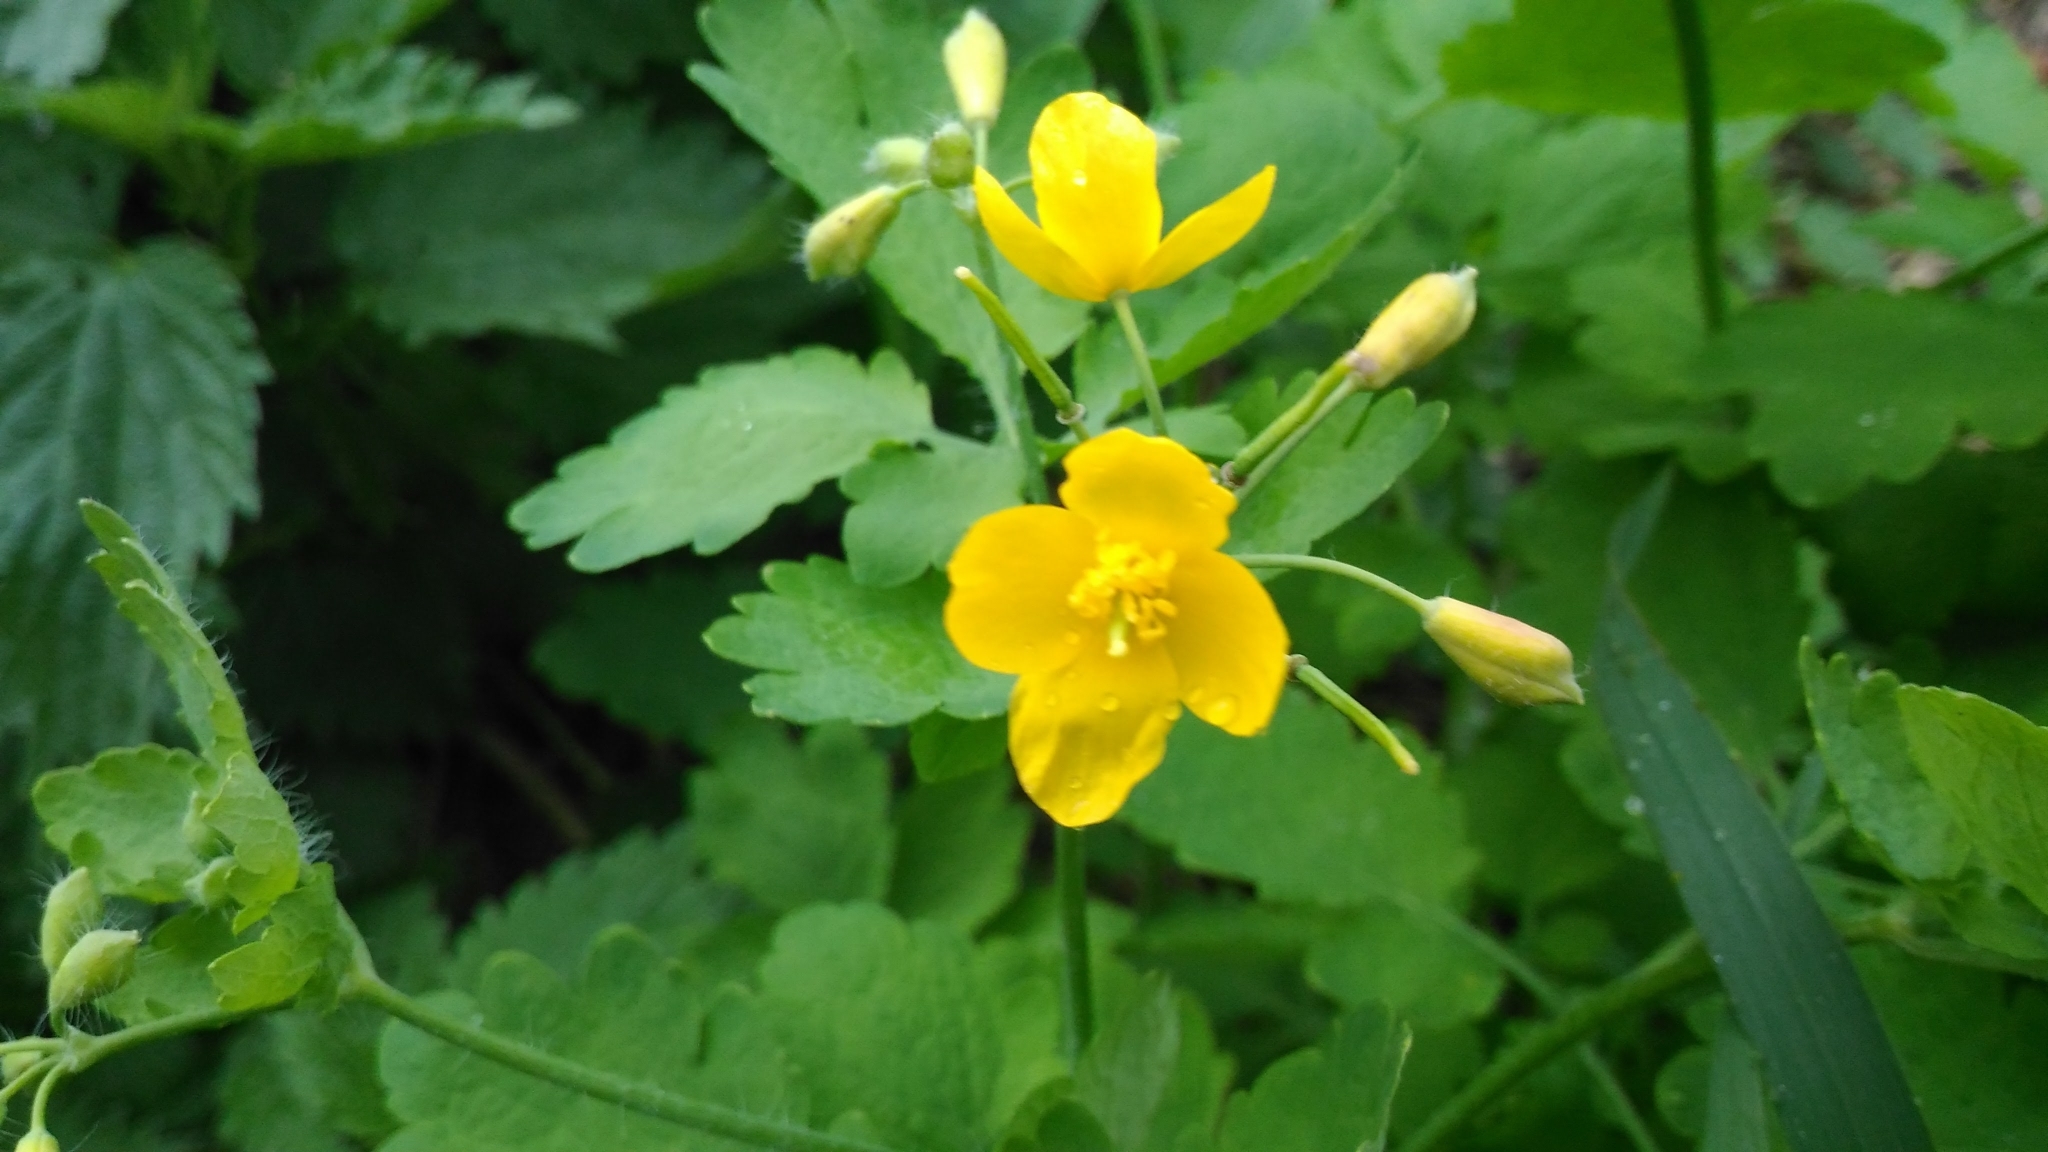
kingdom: Plantae
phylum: Tracheophyta
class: Magnoliopsida
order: Ranunculales
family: Papaveraceae
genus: Chelidonium
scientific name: Chelidonium majus
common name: Greater celandine
